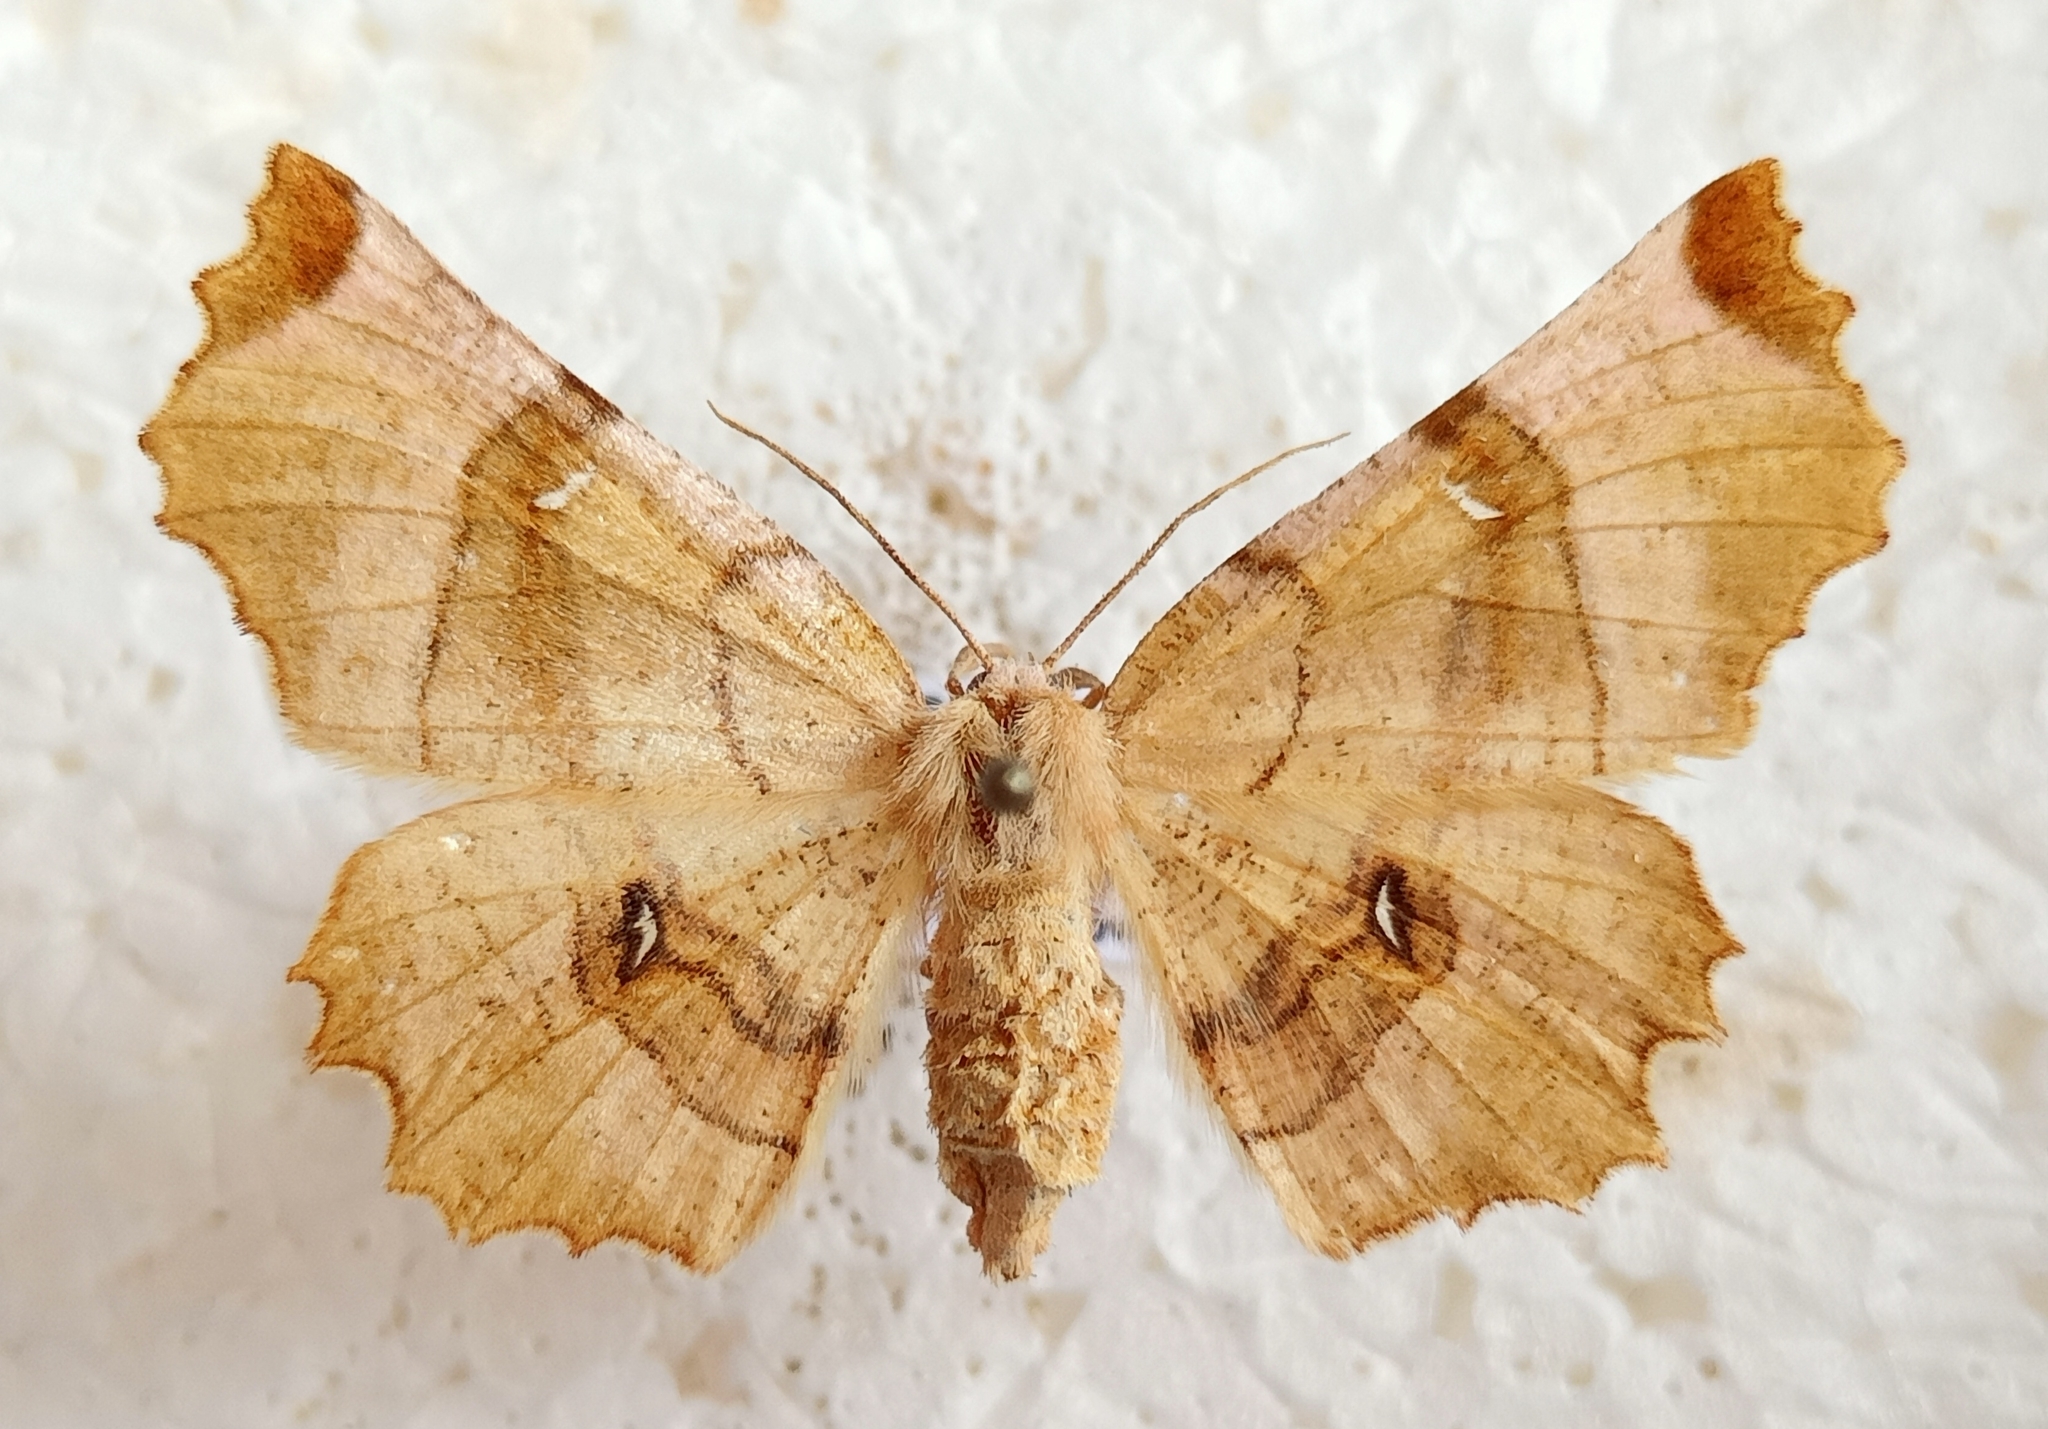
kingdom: Animalia
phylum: Arthropoda
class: Insecta
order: Lepidoptera
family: Geometridae
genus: Selenia
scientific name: Selenia lunularia
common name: Lunar thorn
